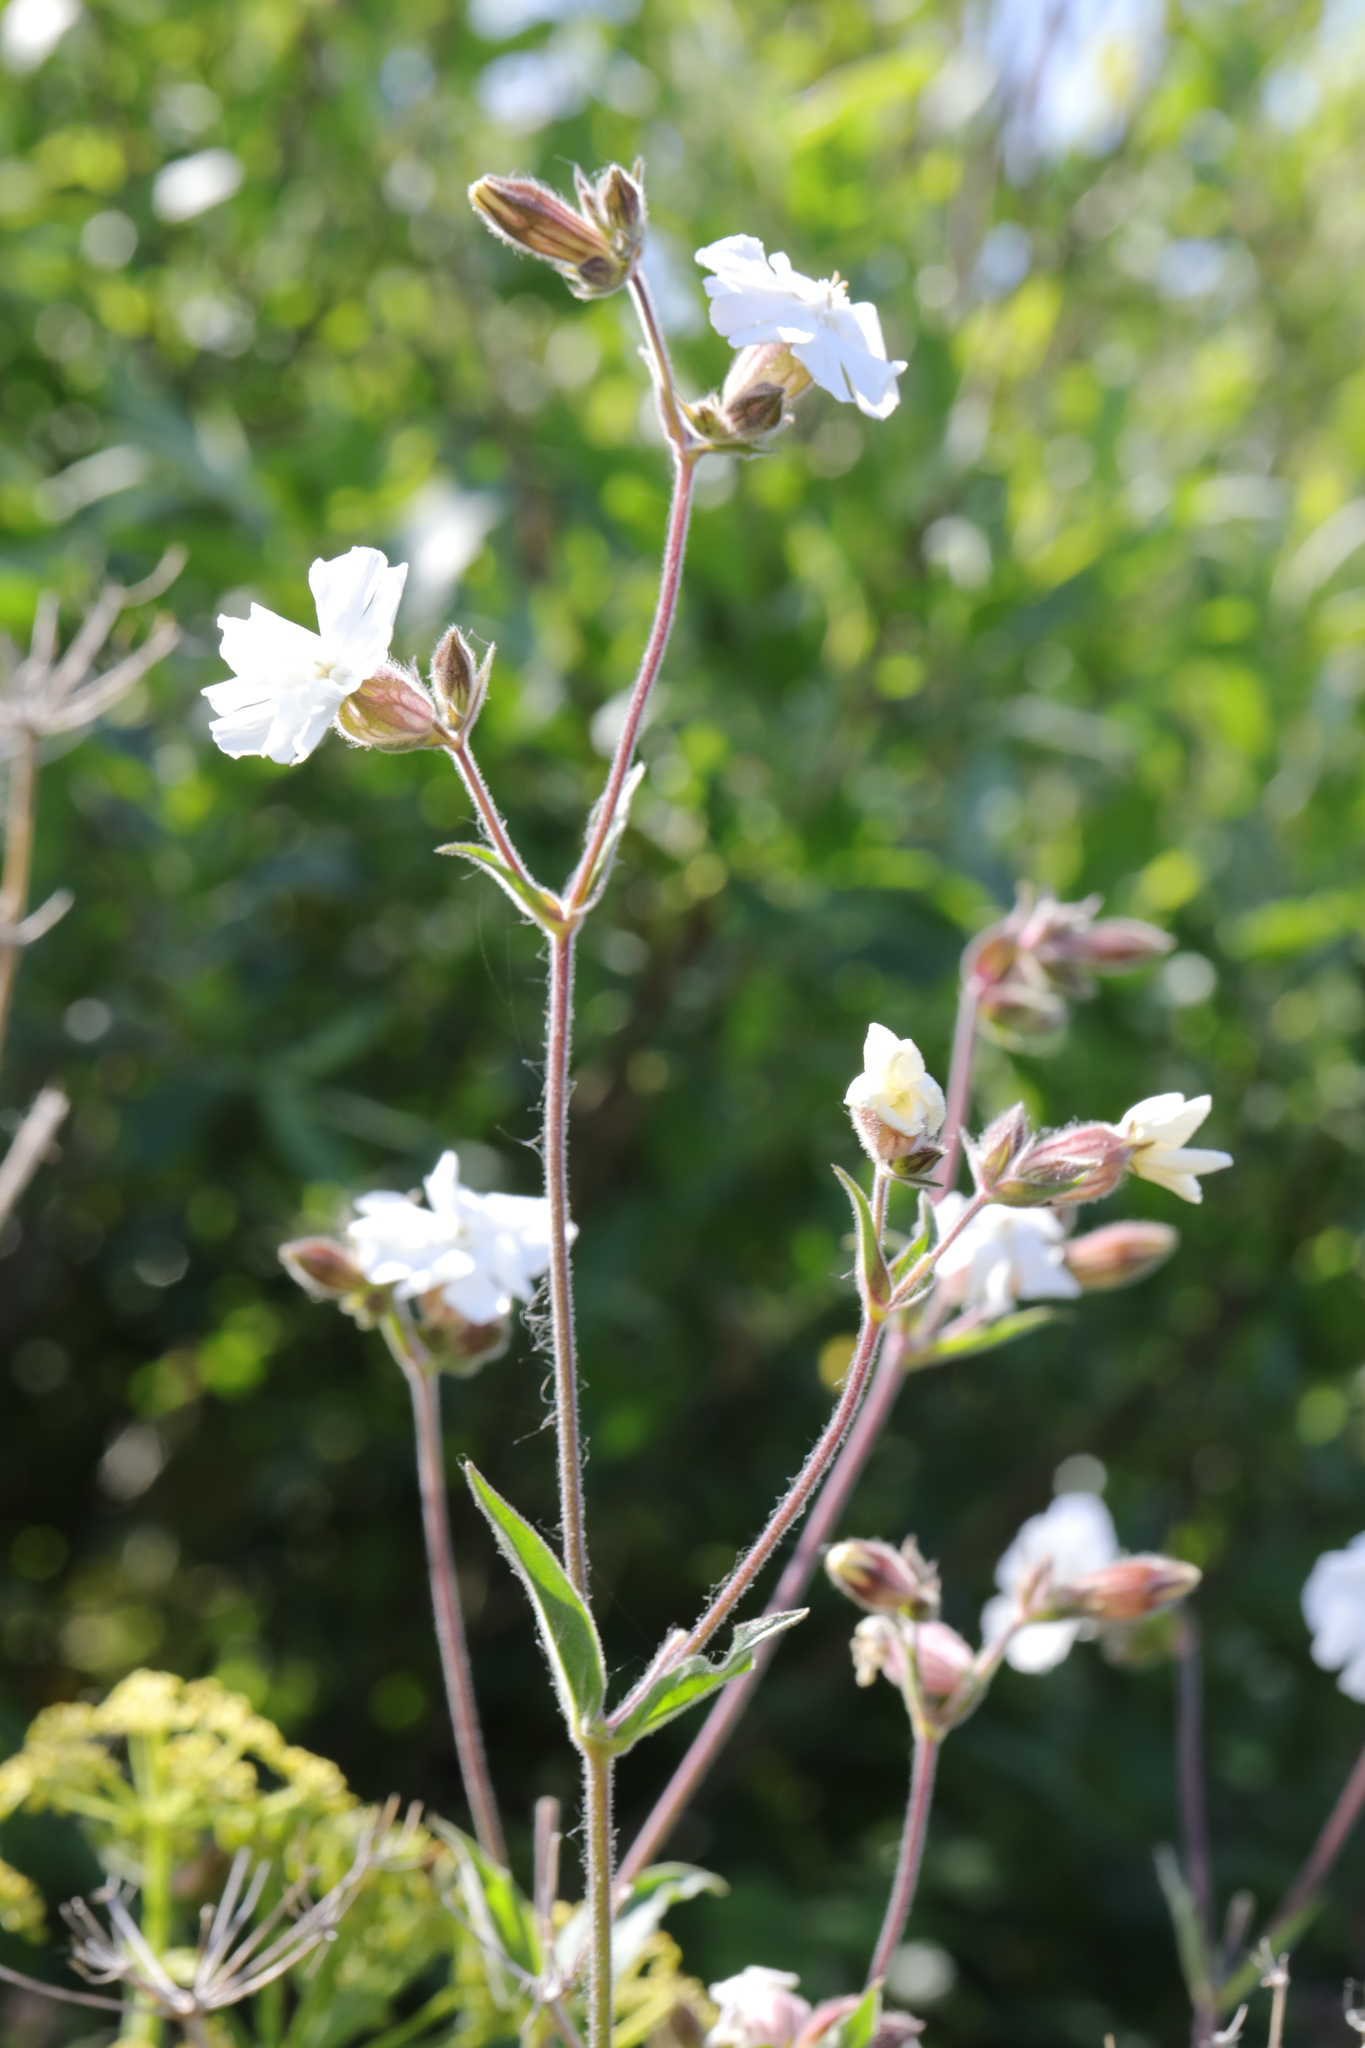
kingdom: Plantae
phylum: Tracheophyta
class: Magnoliopsida
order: Caryophyllales
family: Caryophyllaceae
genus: Silene
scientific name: Silene latifolia
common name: White campion
